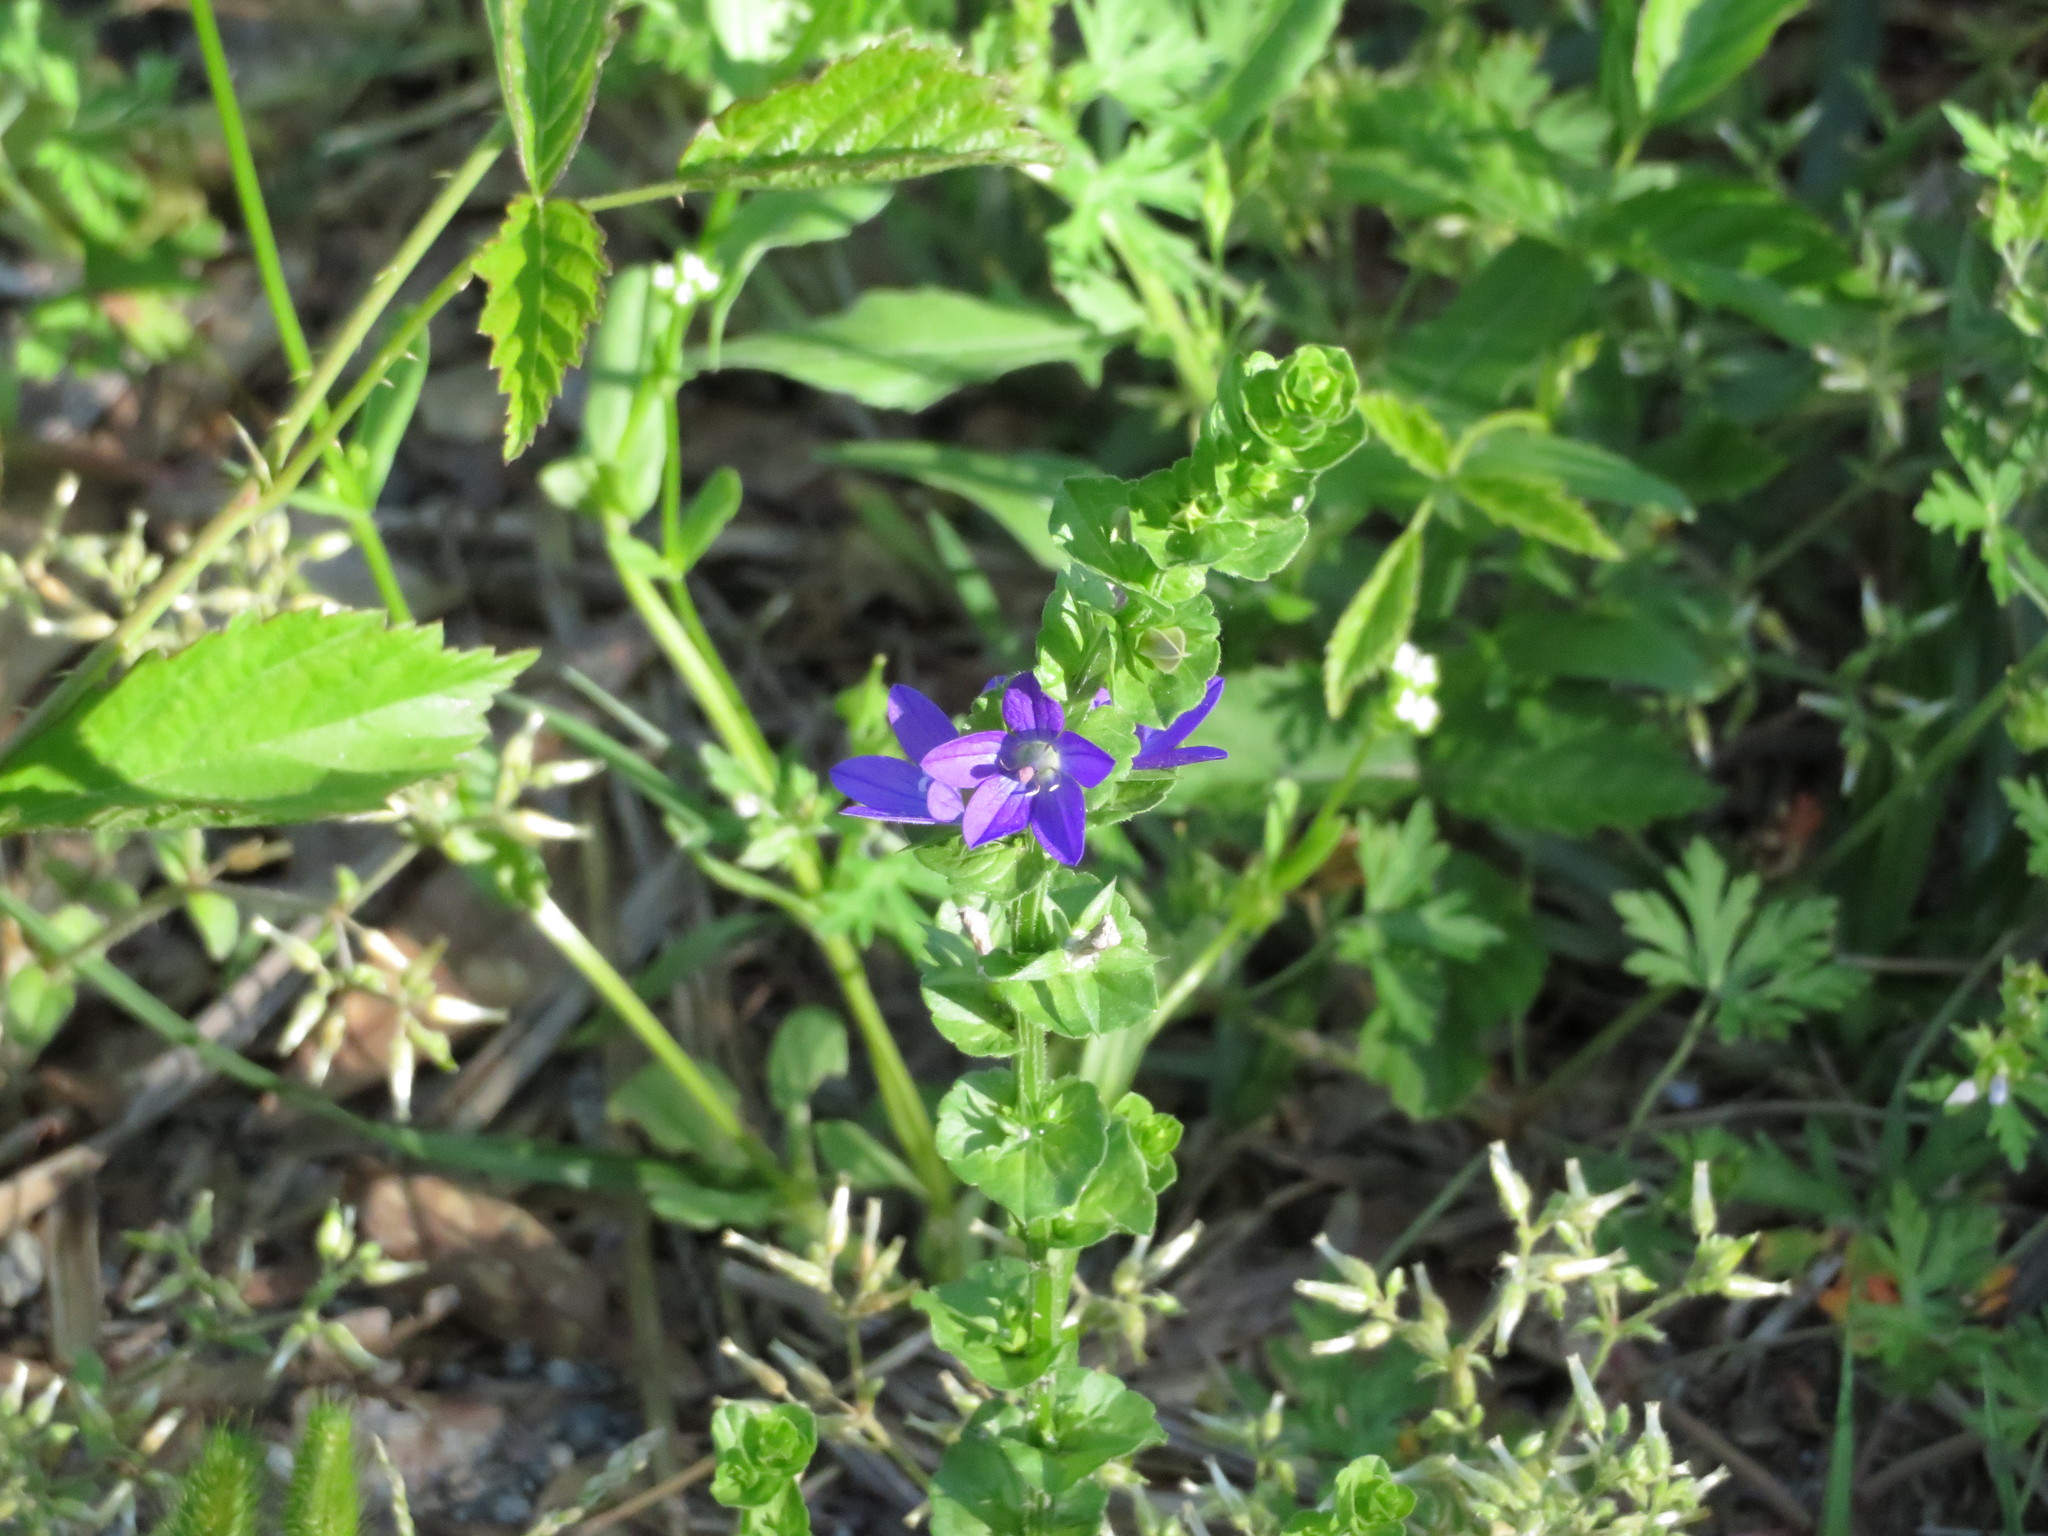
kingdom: Plantae
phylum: Tracheophyta
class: Magnoliopsida
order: Asterales
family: Campanulaceae
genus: Triodanis
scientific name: Triodanis perfoliata
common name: Clasping venus' looking-glass
